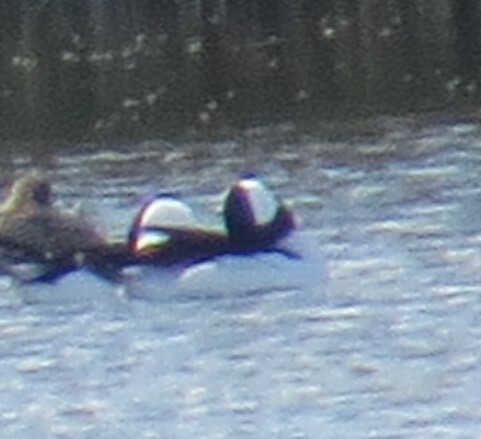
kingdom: Animalia
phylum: Chordata
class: Aves
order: Anseriformes
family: Anatidae
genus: Bucephala
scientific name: Bucephala albeola
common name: Bufflehead
